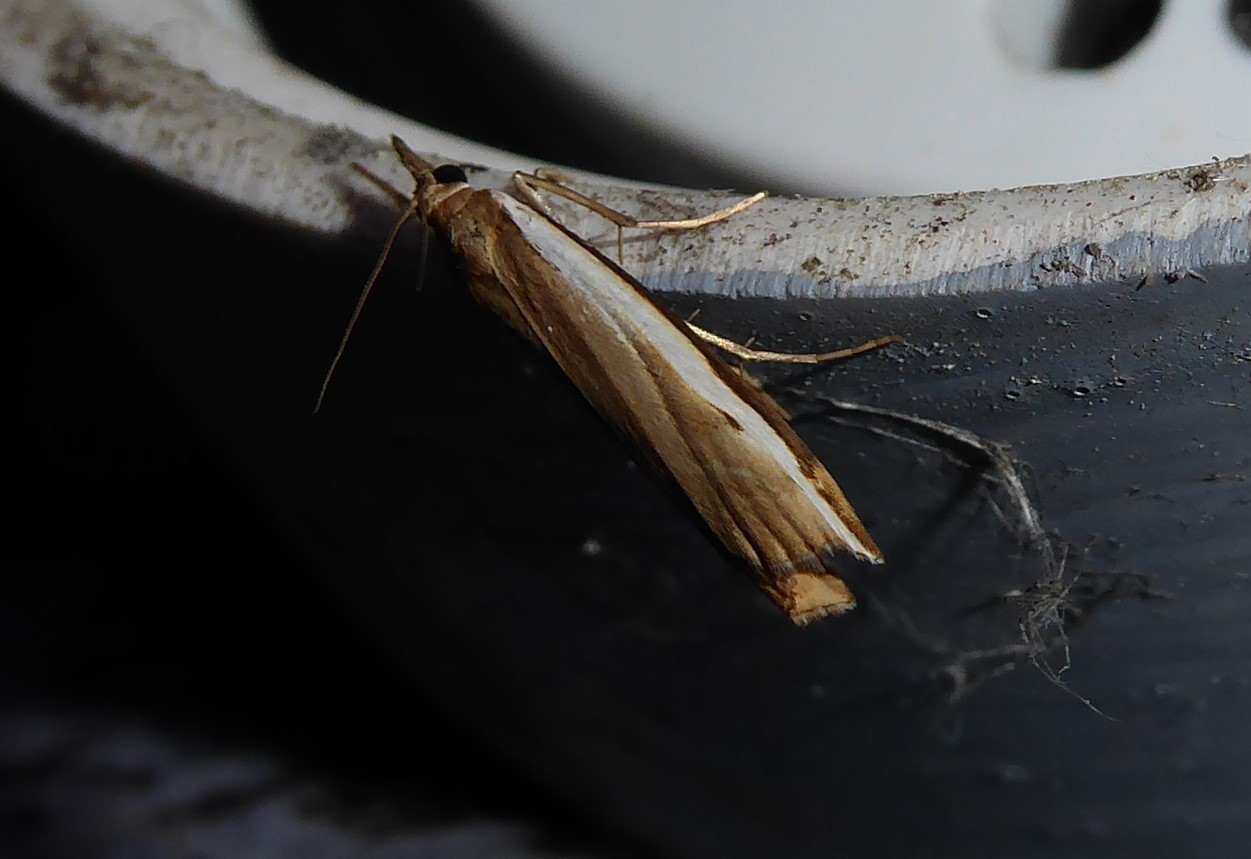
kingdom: Animalia
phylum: Arthropoda
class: Insecta
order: Lepidoptera
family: Crambidae
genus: Orocrambus
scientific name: Orocrambus flexuosellus
